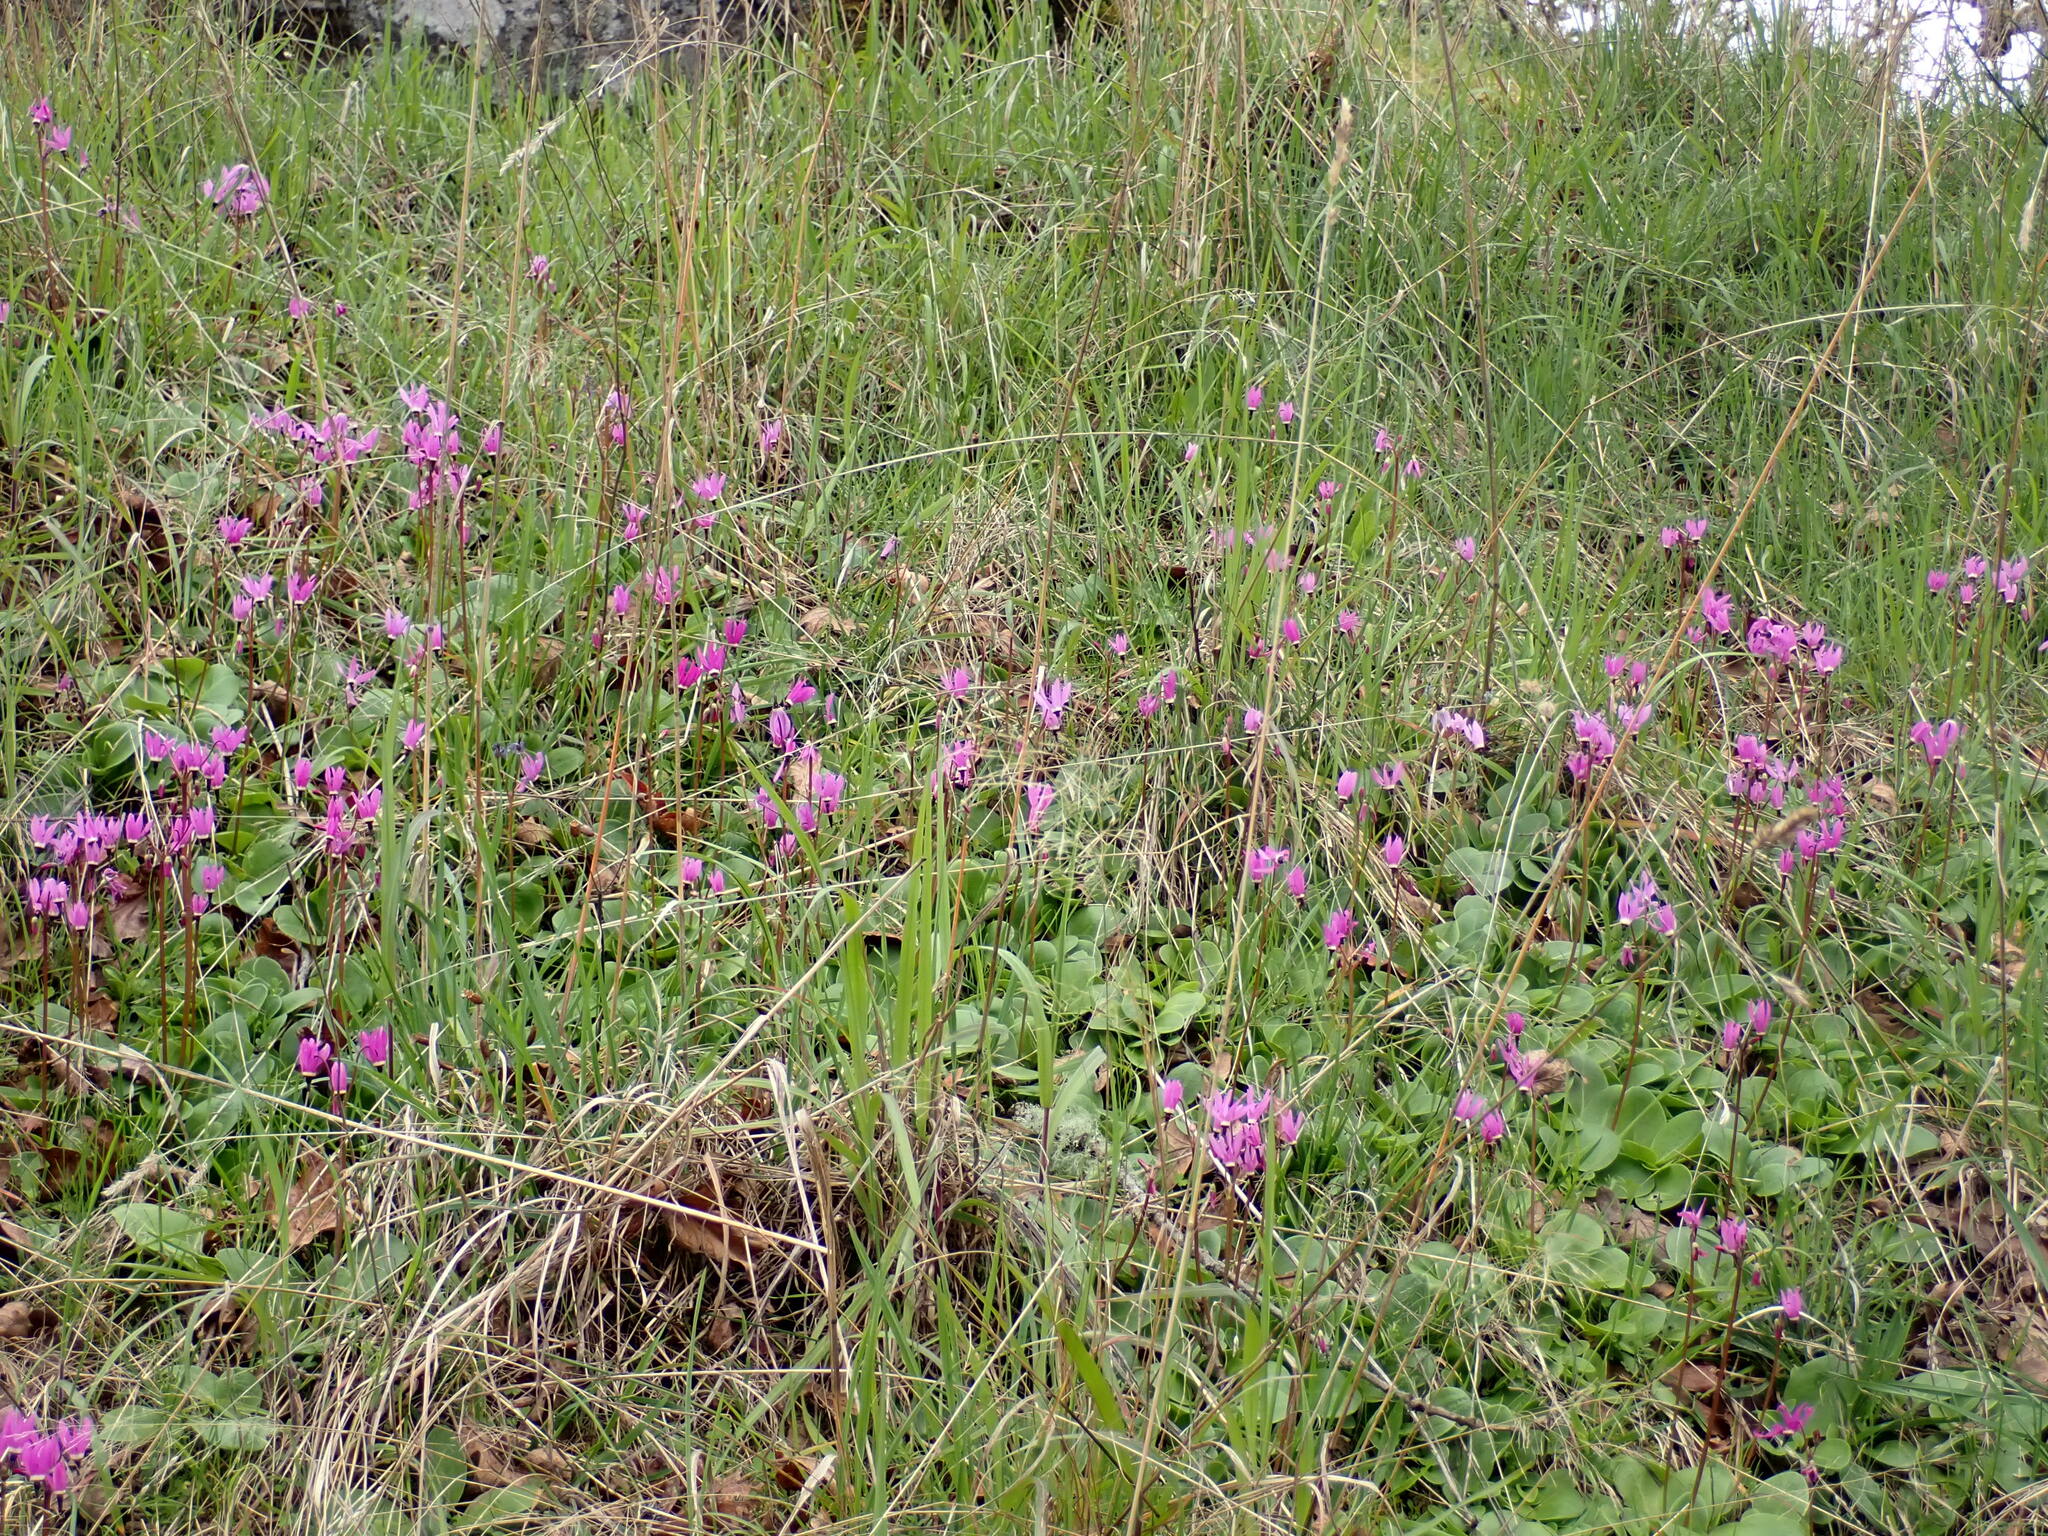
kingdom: Plantae
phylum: Tracheophyta
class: Magnoliopsida
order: Ericales
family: Primulaceae
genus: Dodecatheon
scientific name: Dodecatheon hendersonii
